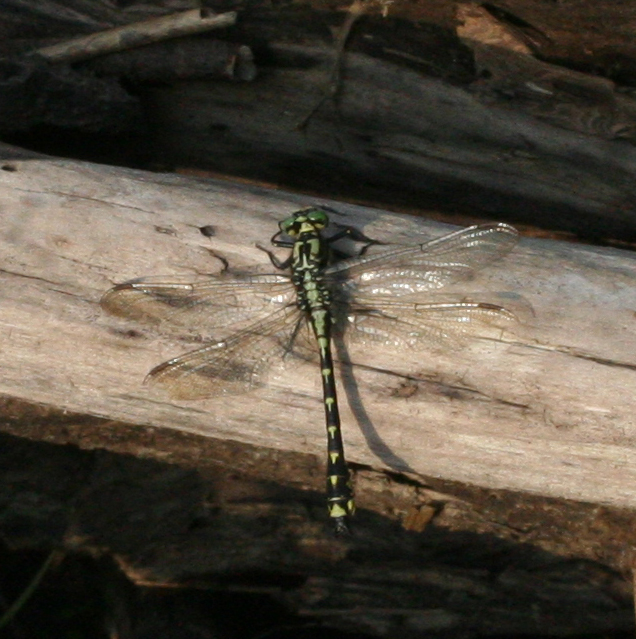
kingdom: Animalia
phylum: Arthropoda
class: Insecta
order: Odonata
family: Gomphidae
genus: Shaogomphus
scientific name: Shaogomphus schmidti
